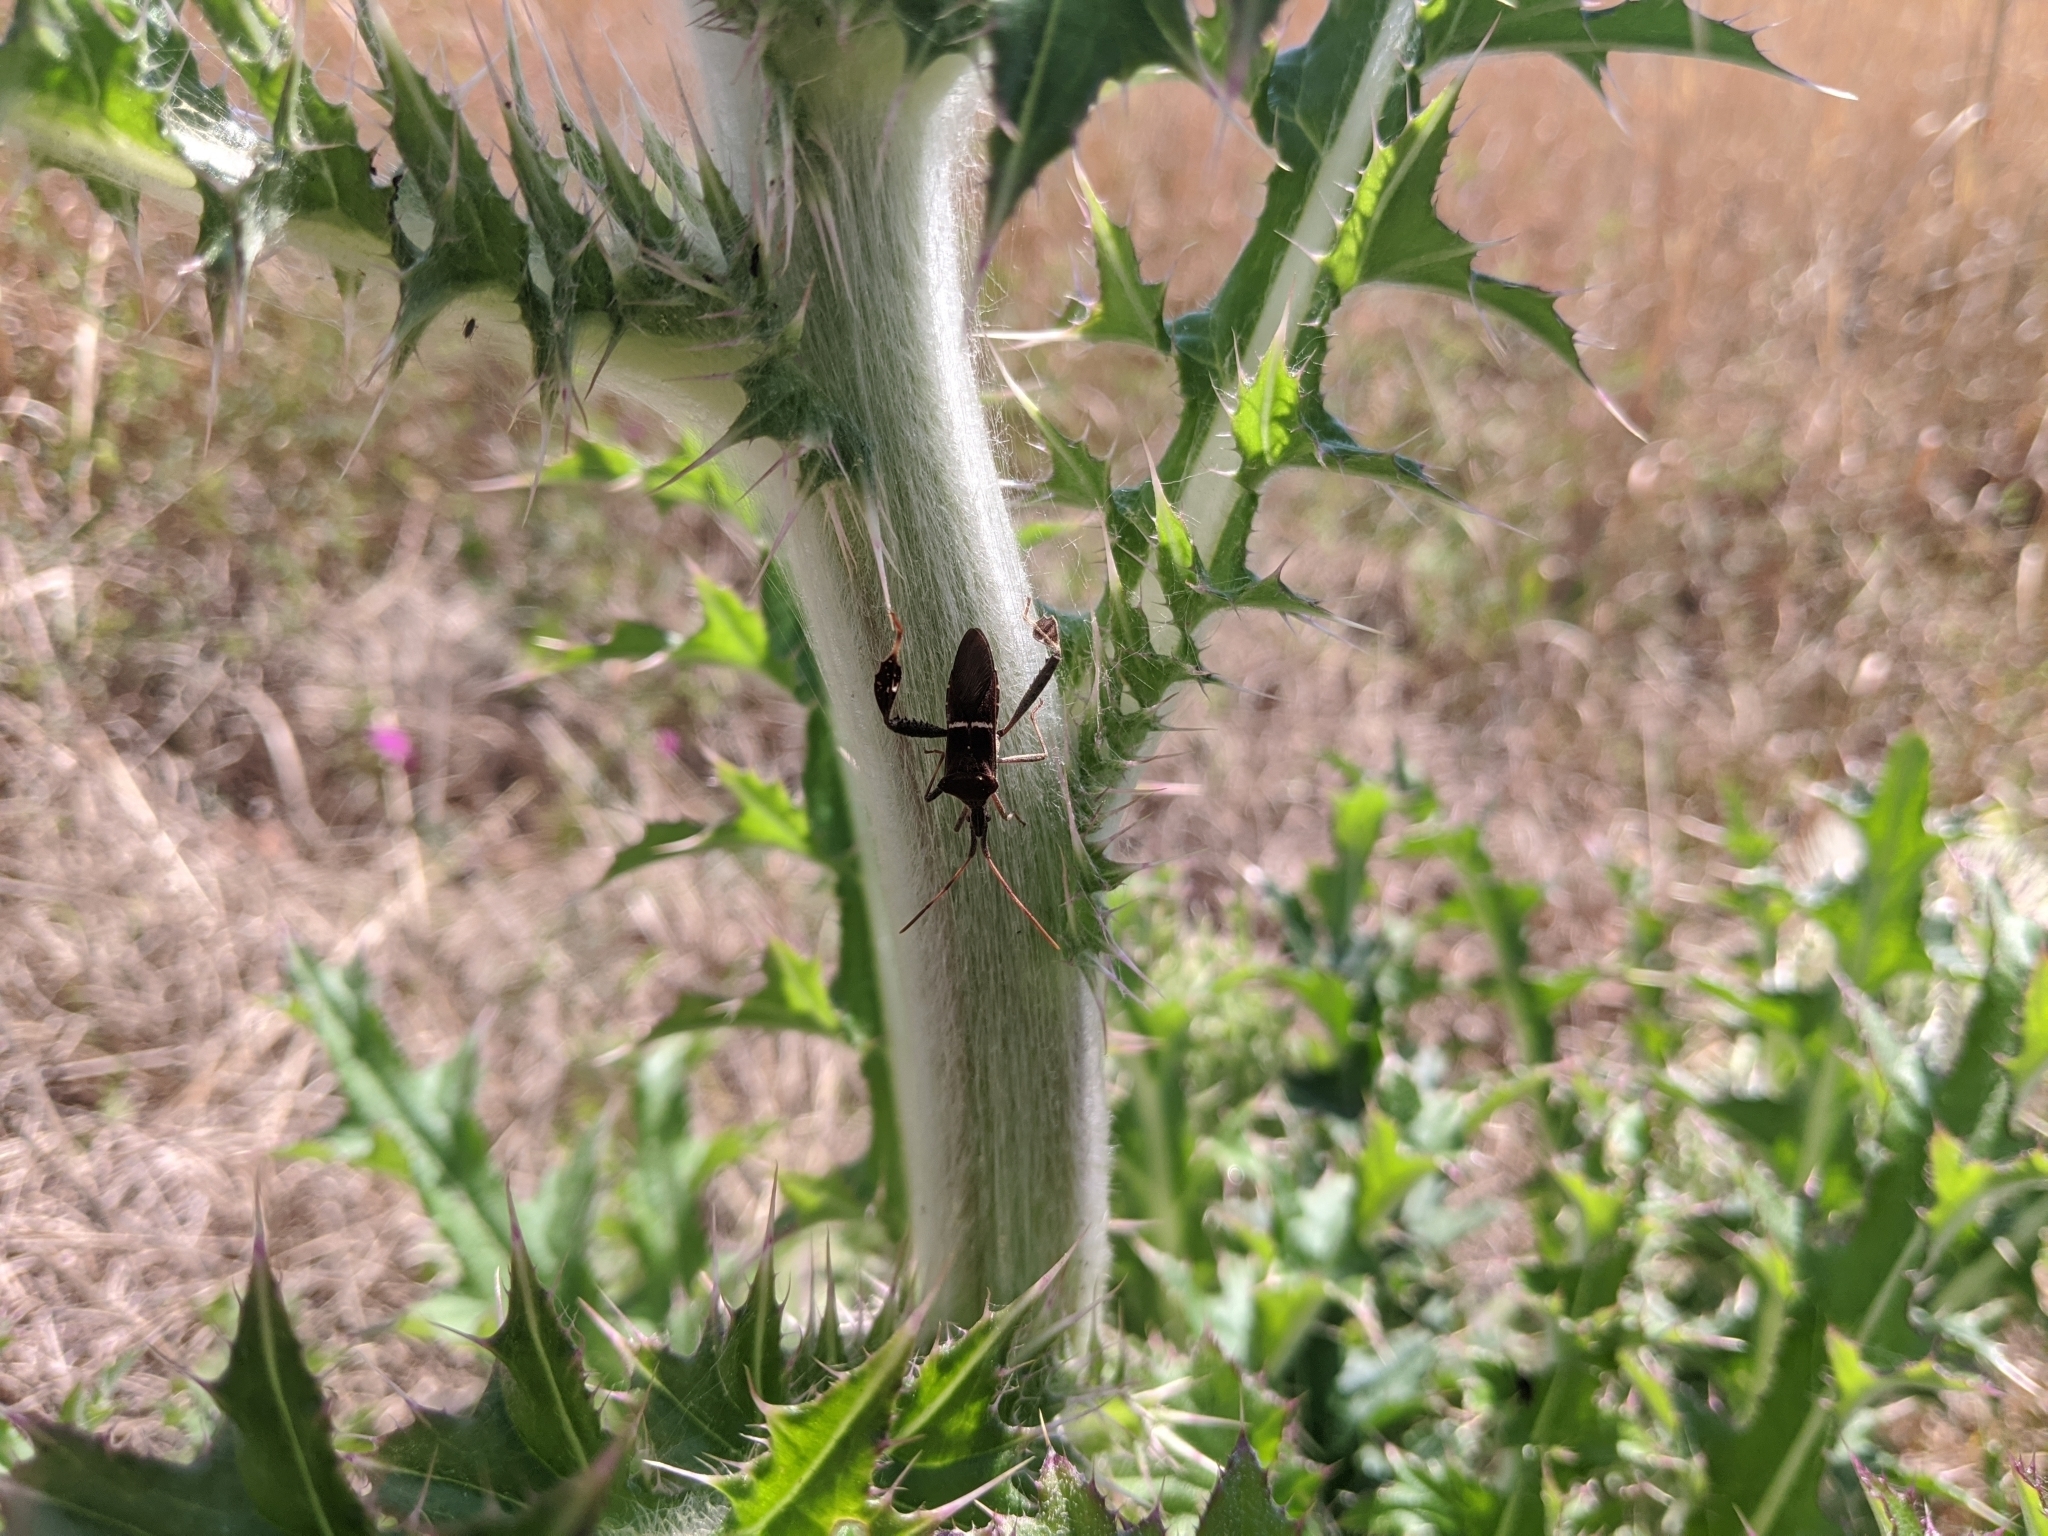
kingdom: Animalia
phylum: Arthropoda
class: Insecta
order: Hemiptera
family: Coreidae
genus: Leptoglossus
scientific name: Leptoglossus phyllopus
